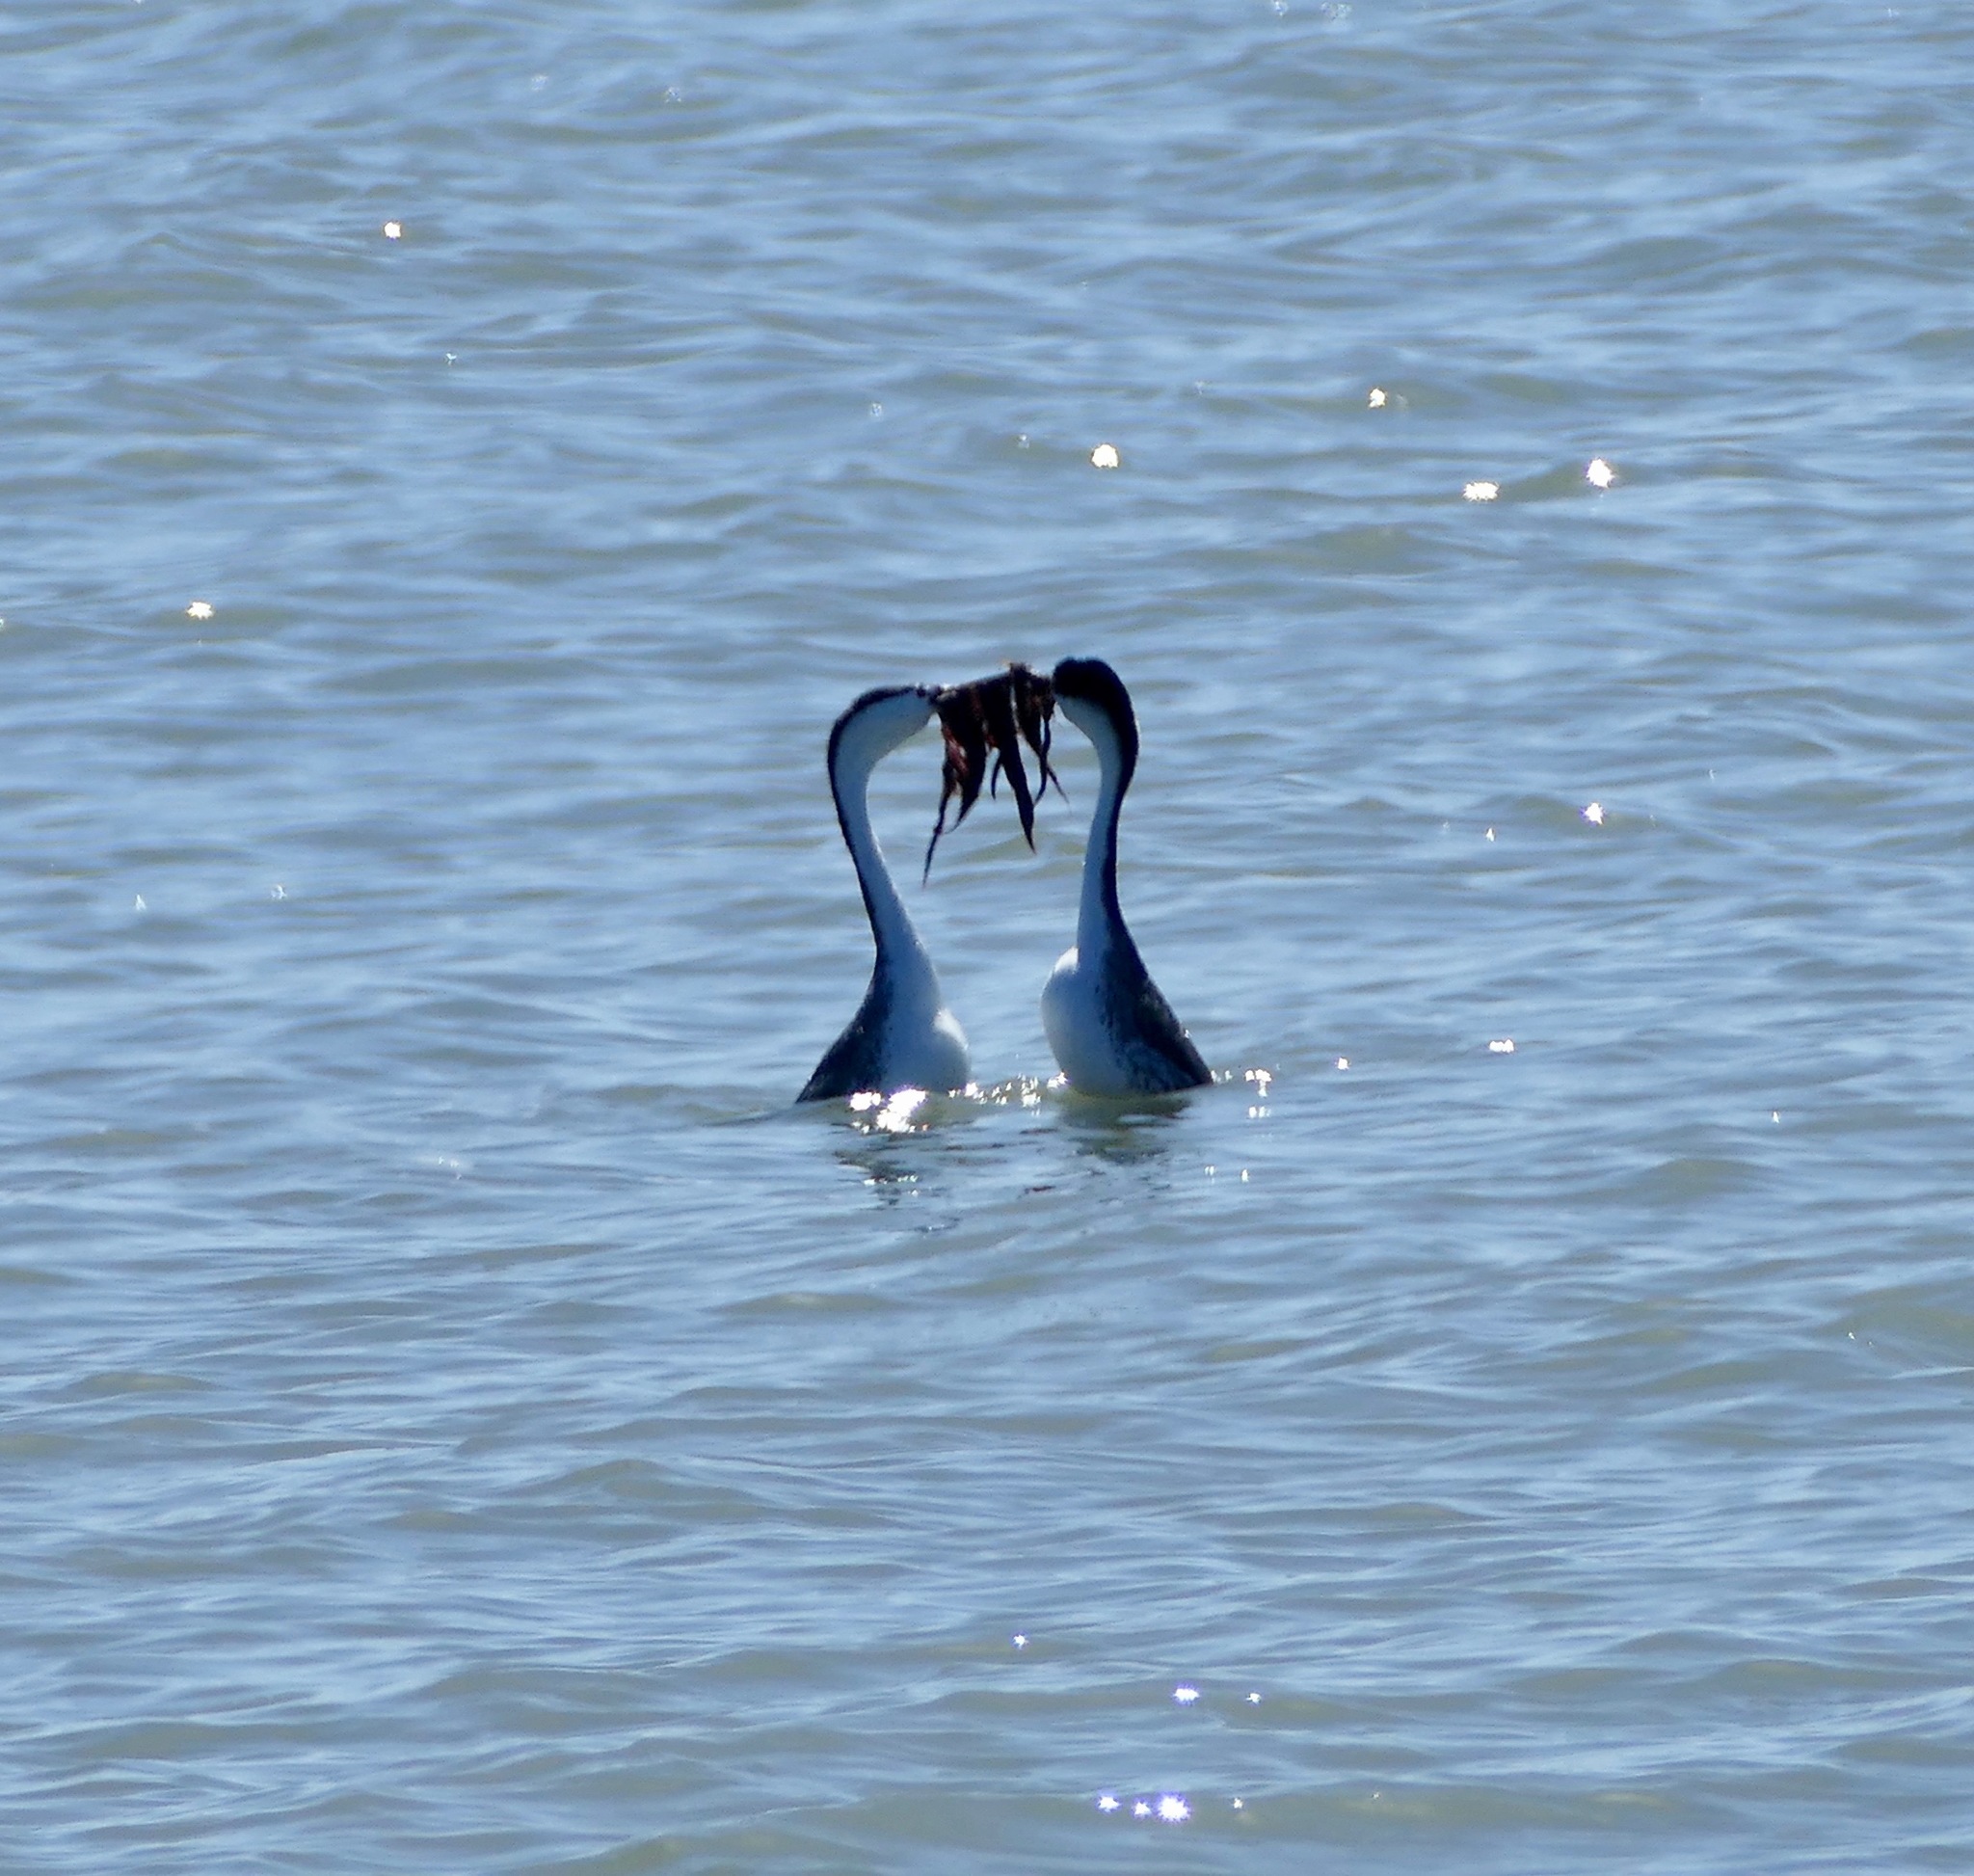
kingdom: Animalia
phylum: Chordata
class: Aves
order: Podicipediformes
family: Podicipedidae
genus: Aechmophorus
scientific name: Aechmophorus clarkii
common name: Clark's grebe
